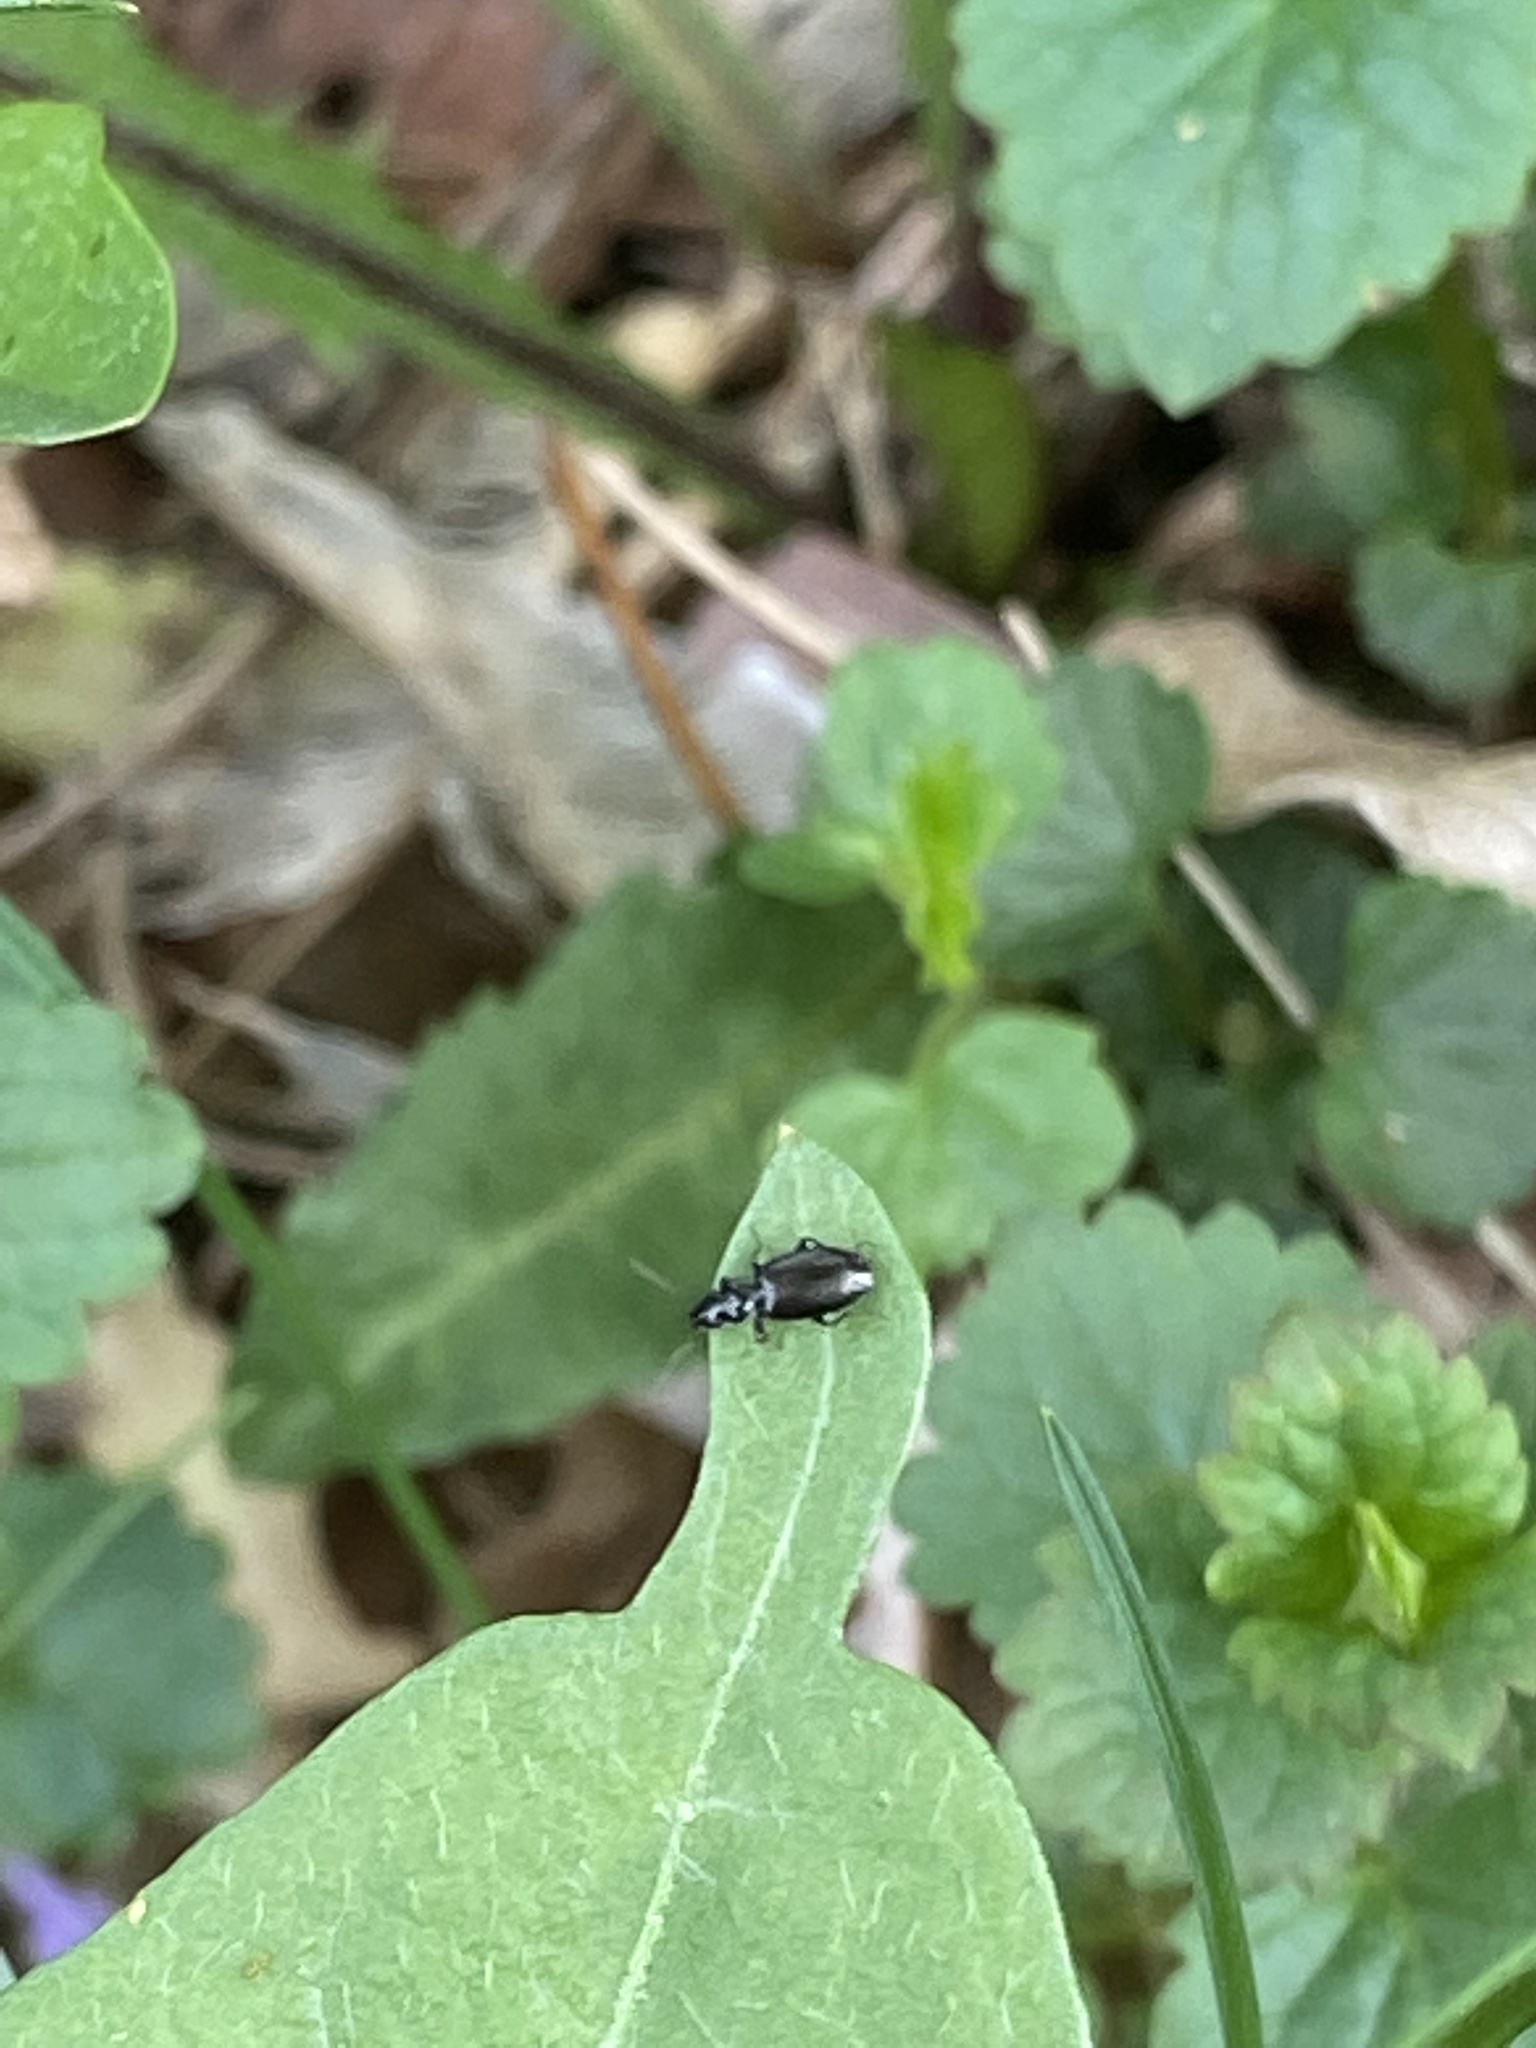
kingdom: Animalia
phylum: Arthropoda
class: Insecta
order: Coleoptera
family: Carabidae
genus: Syntomus
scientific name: Syntomus
